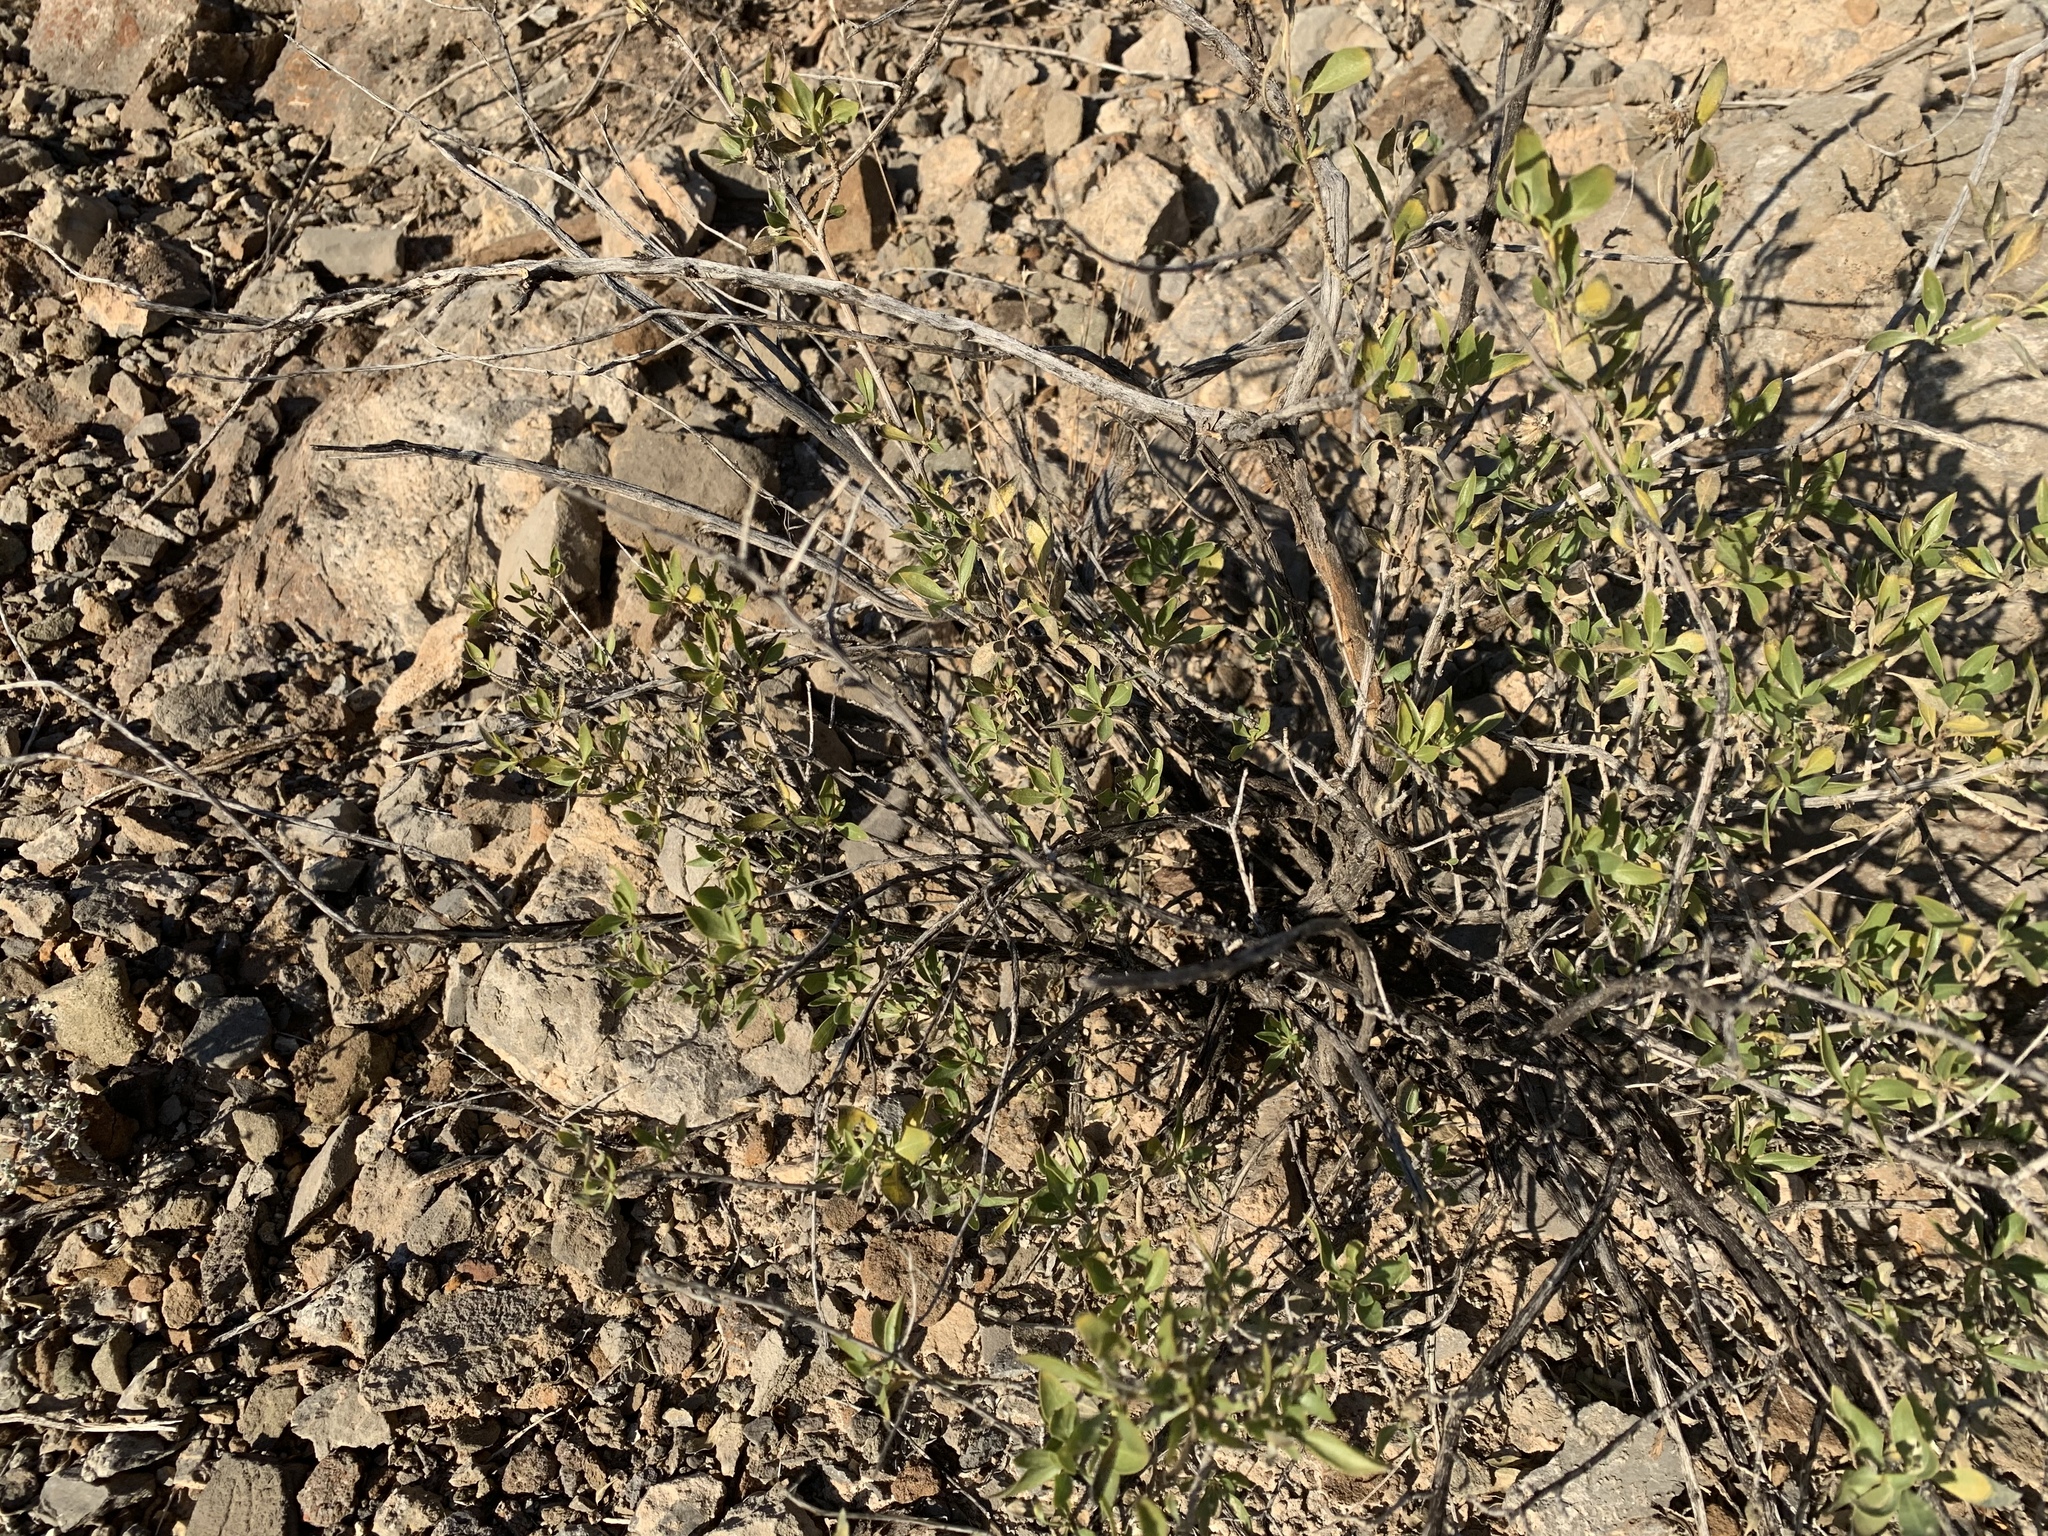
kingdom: Plantae
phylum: Tracheophyta
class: Magnoliopsida
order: Asterales
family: Asteraceae
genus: Flourensia
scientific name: Flourensia cernua
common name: Varnishbush
